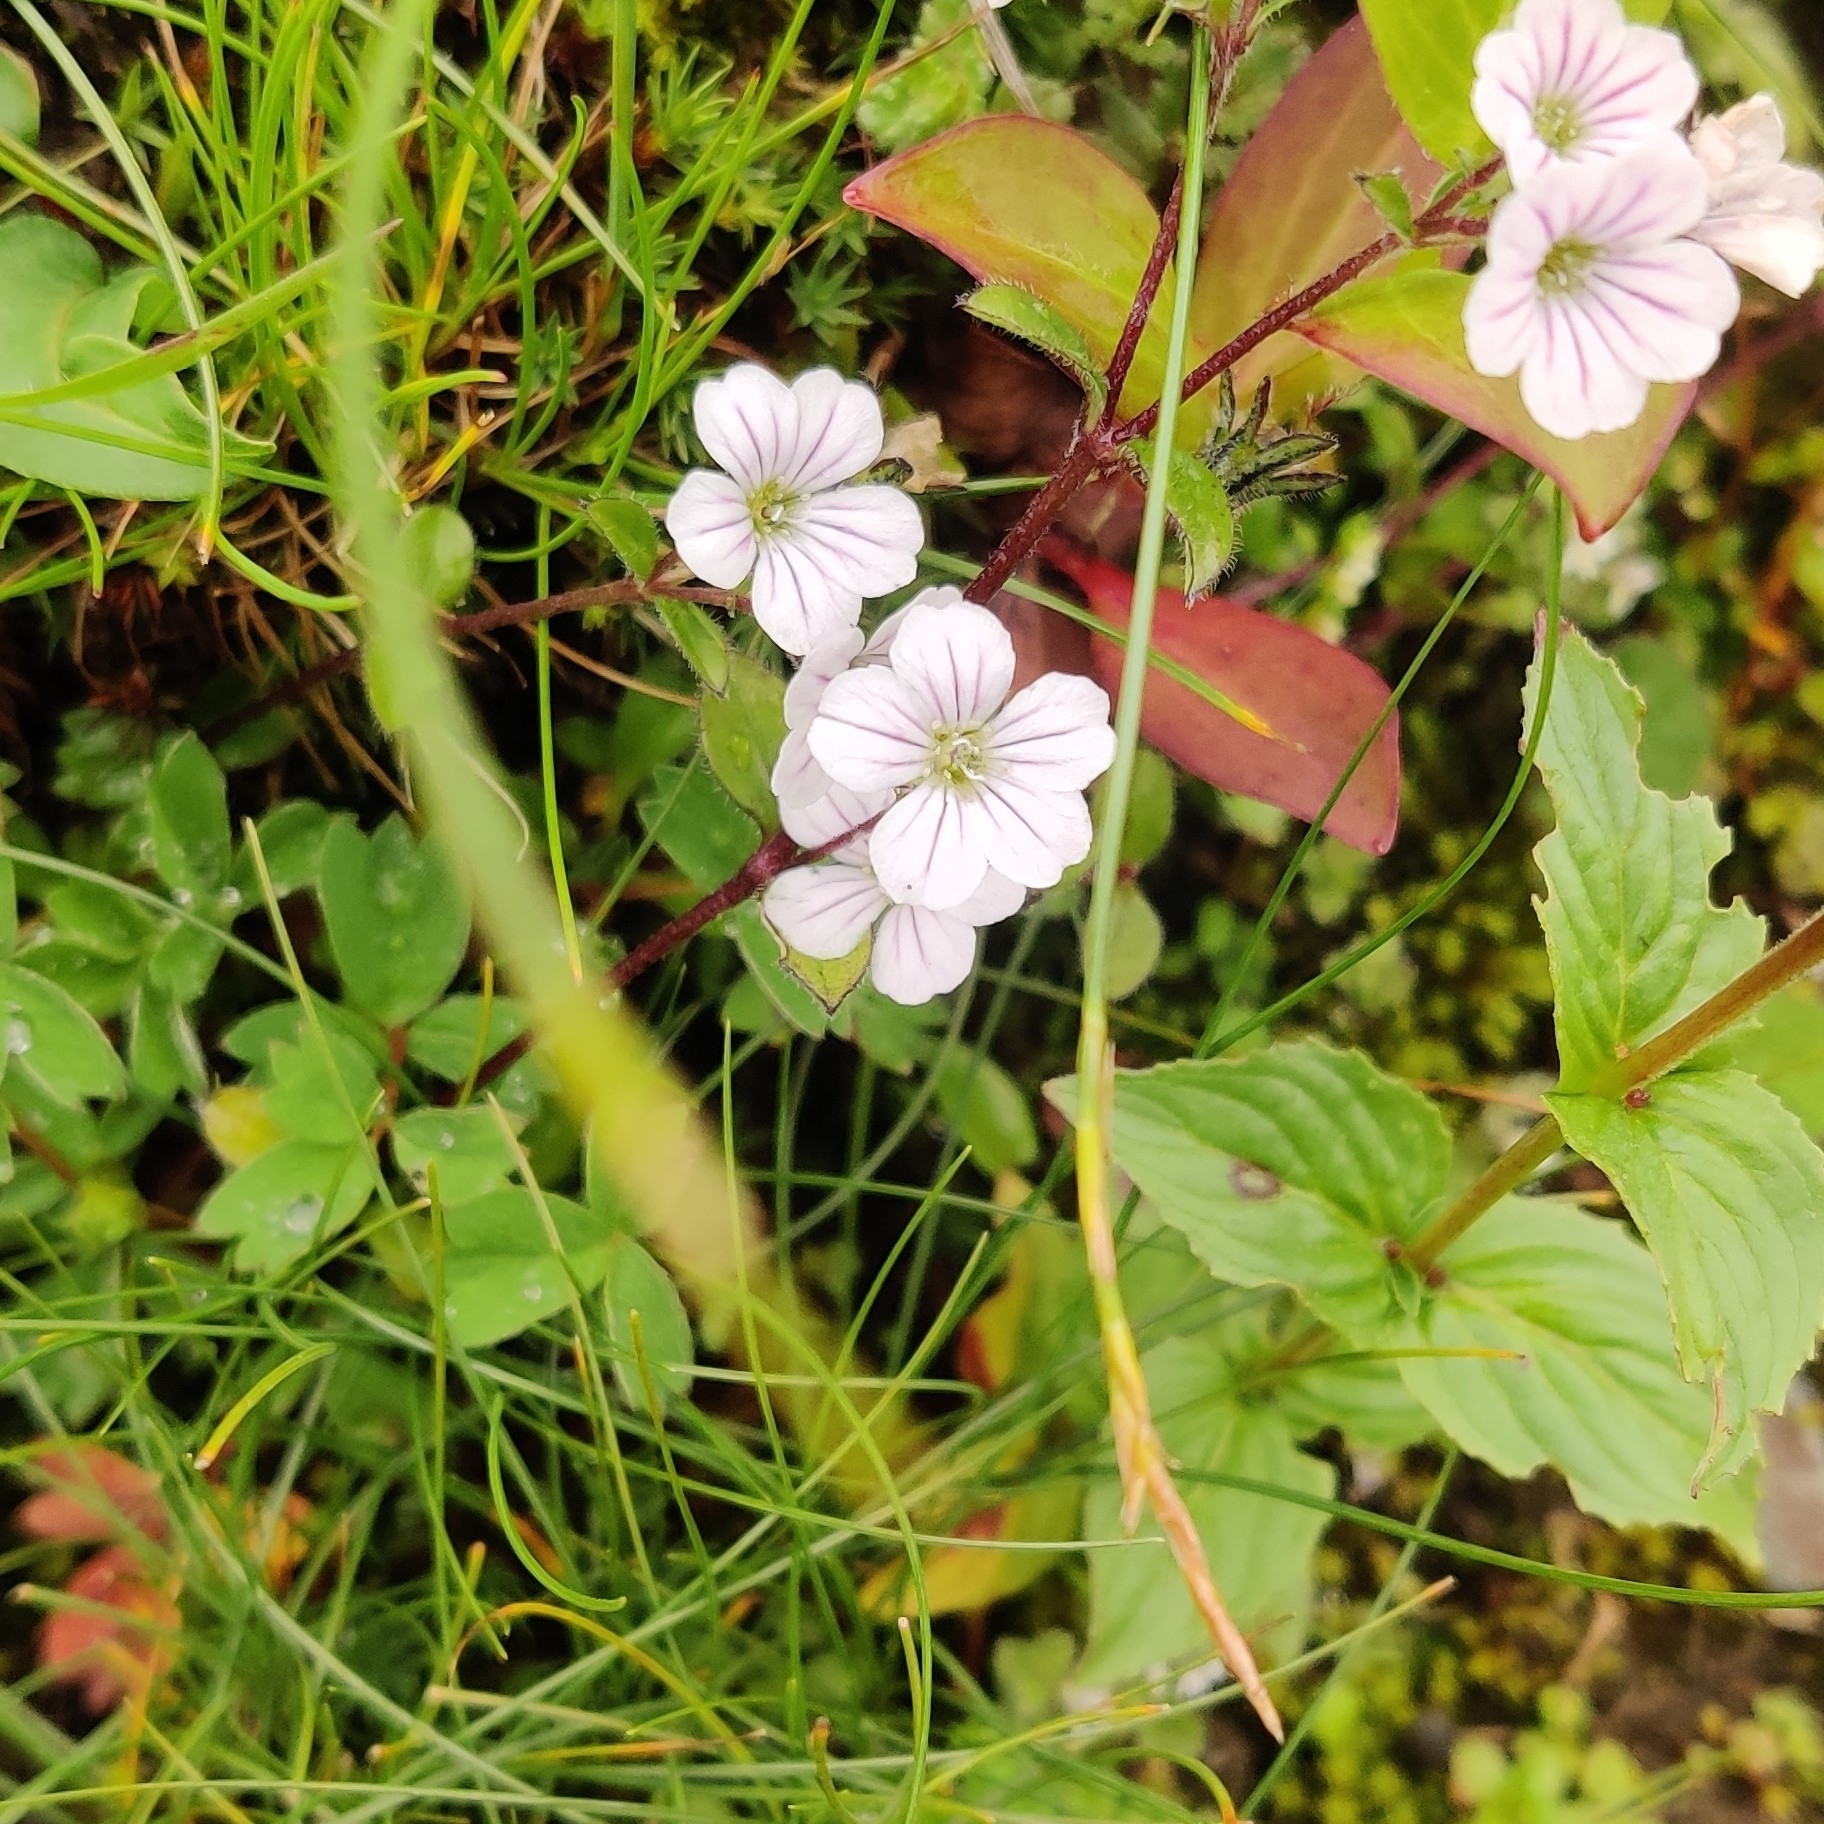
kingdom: Plantae
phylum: Tracheophyta
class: Magnoliopsida
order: Caryophyllales
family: Caryophyllaceae
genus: Acanthophyllum
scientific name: Acanthophyllum cerastioides
